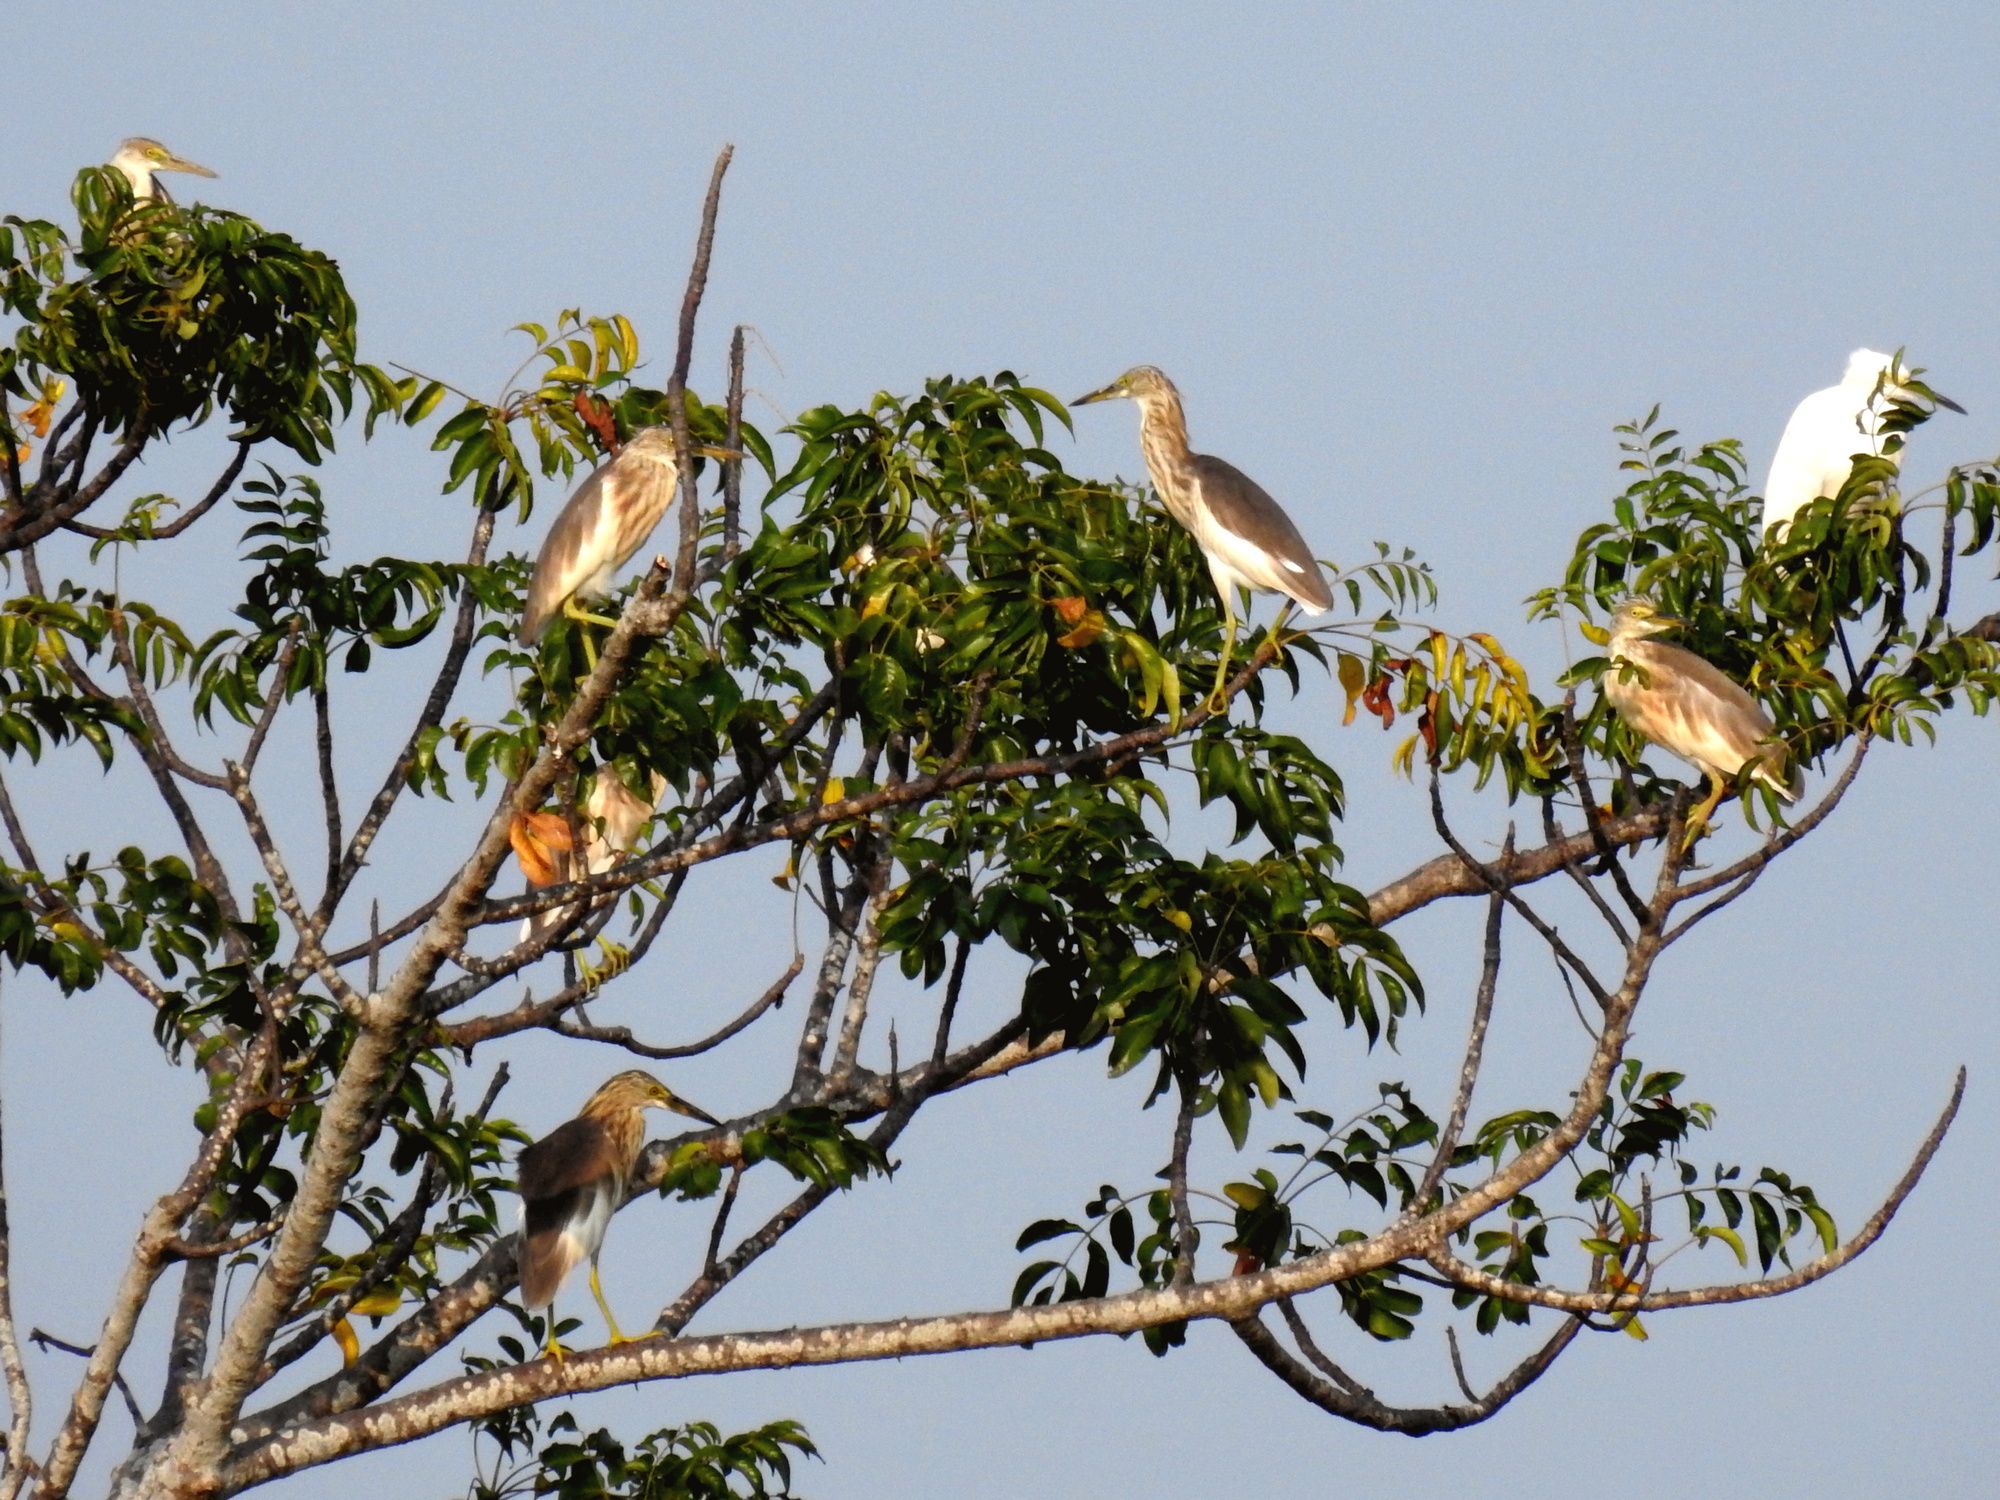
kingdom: Animalia
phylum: Chordata
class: Aves
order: Pelecaniformes
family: Ardeidae
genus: Ardeola
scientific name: Ardeola speciosa
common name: Javan pond heron
